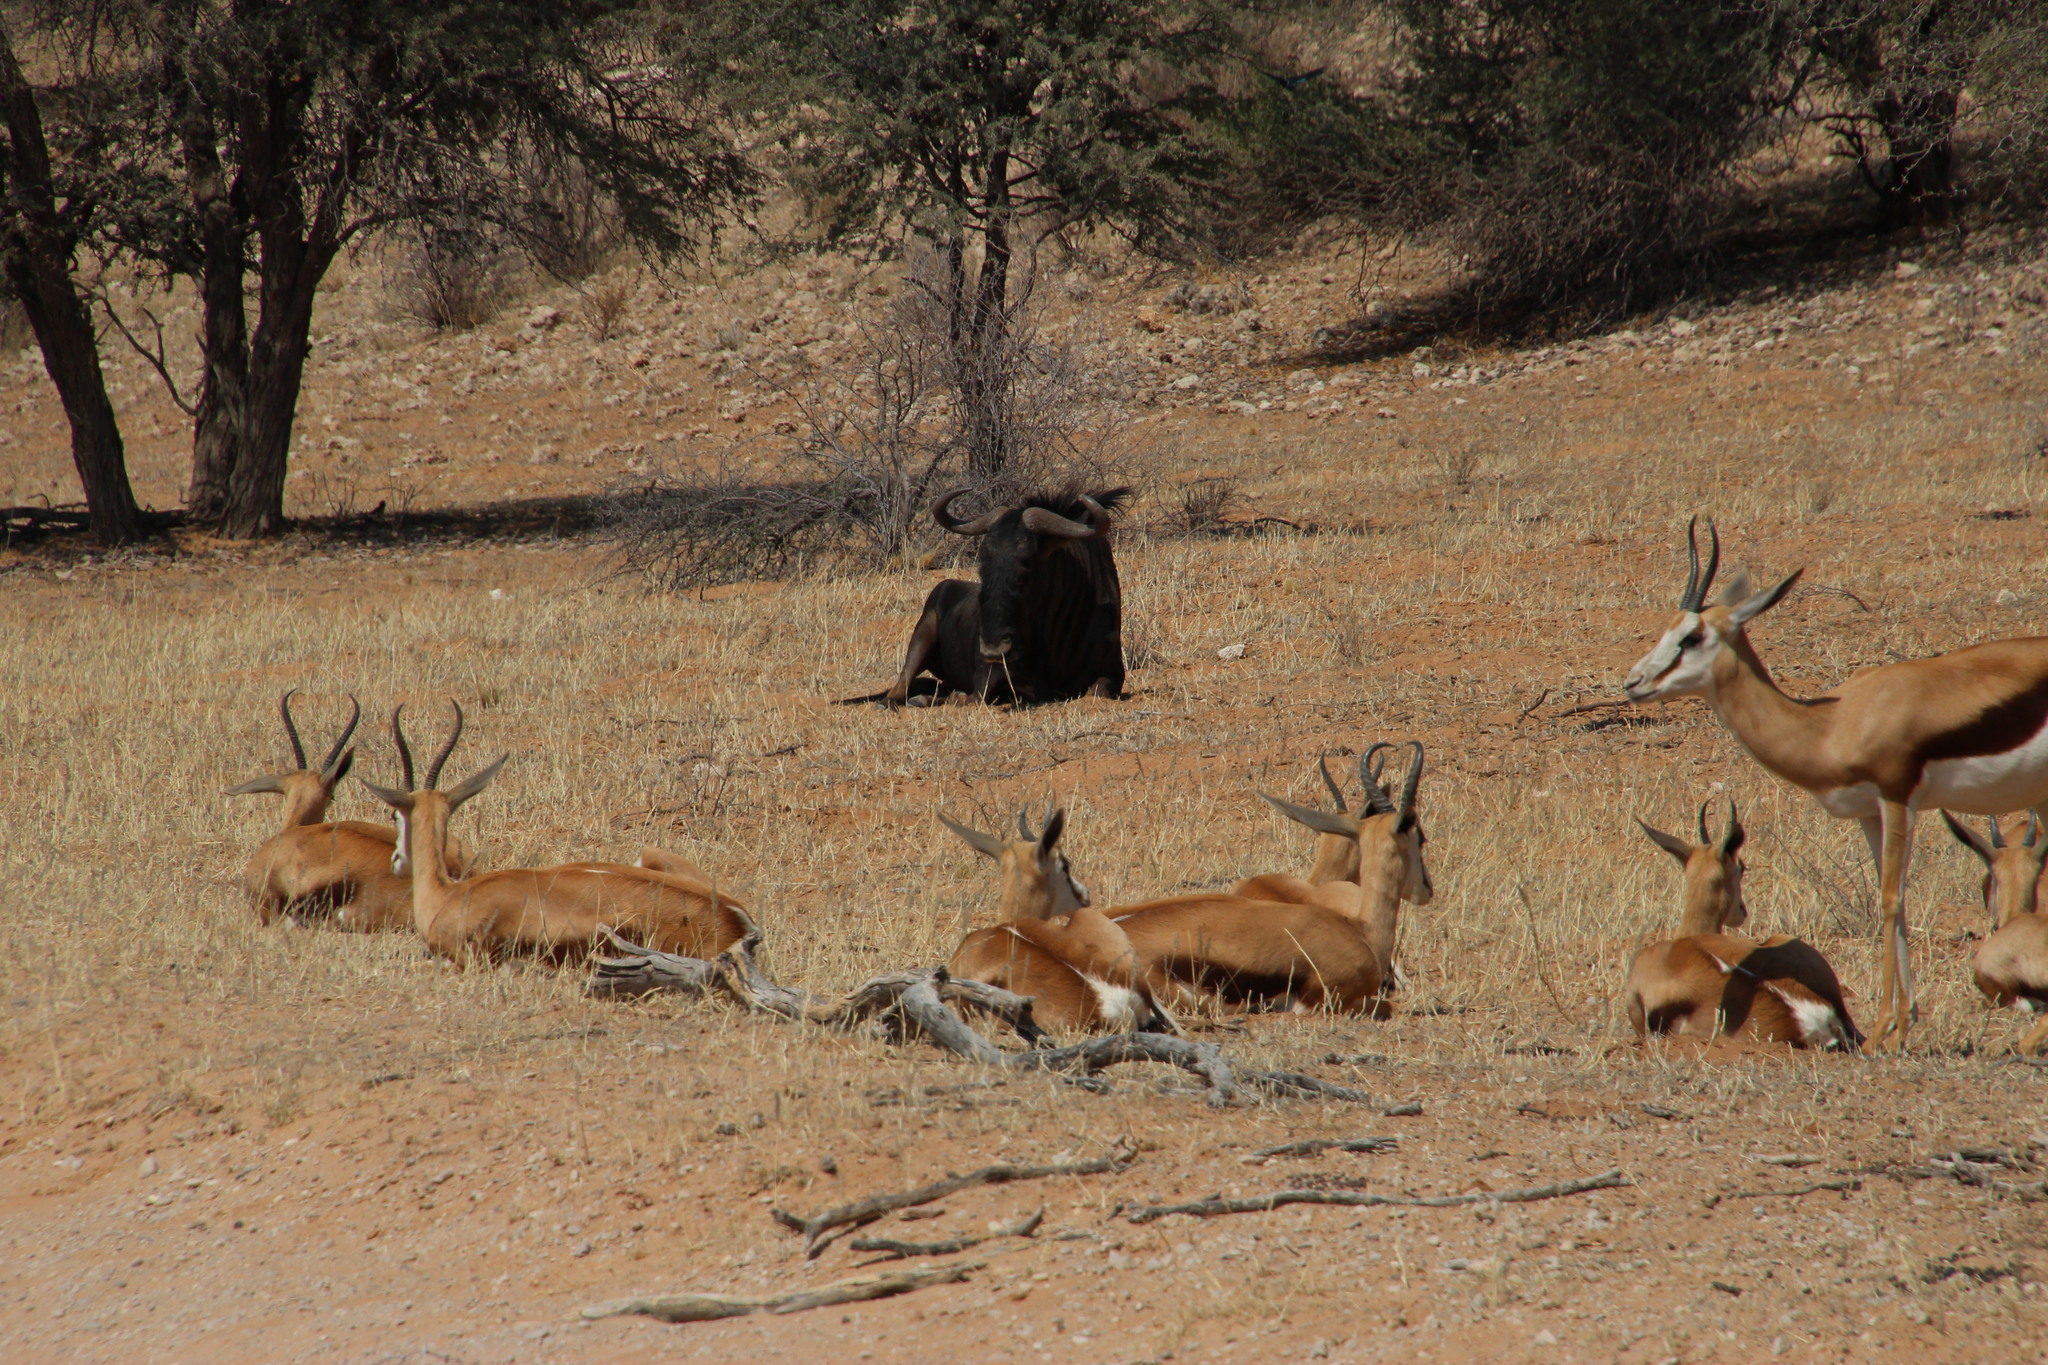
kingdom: Animalia
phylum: Chordata
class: Mammalia
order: Artiodactyla
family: Bovidae
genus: Connochaetes
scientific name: Connochaetes taurinus
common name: Blue wildebeest
